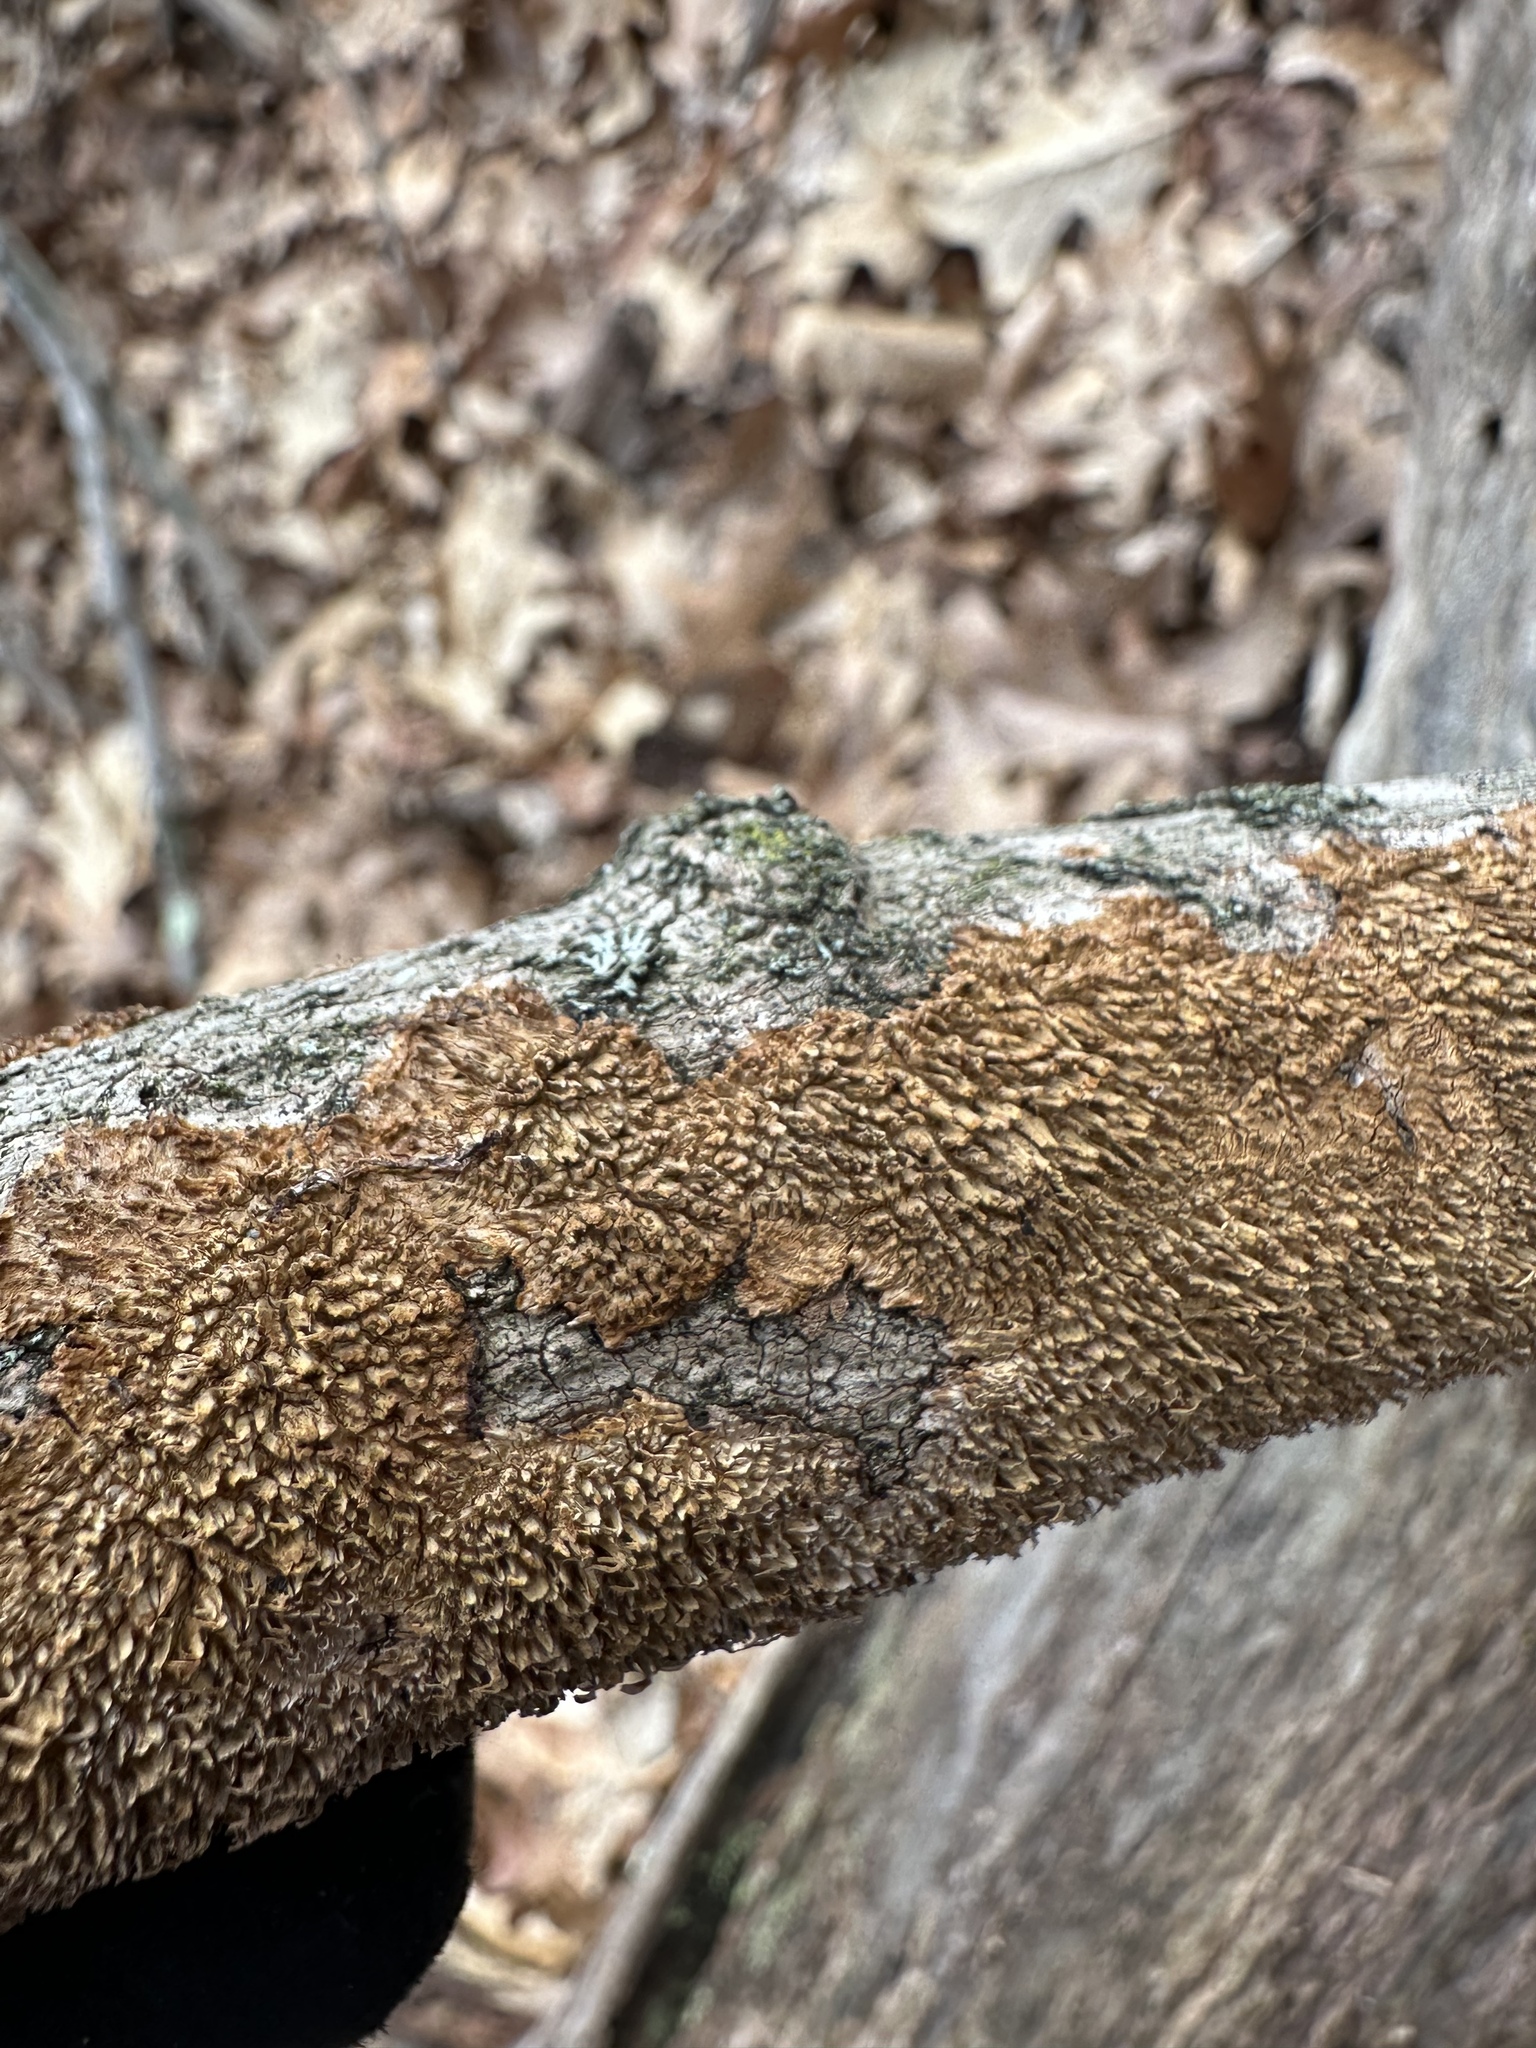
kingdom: Fungi
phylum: Basidiomycota
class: Agaricomycetes
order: Hymenochaetales
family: Hymenochaetaceae
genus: Hydnoporia
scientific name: Hydnoporia olivacea
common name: Brown-toothed crust fungus
